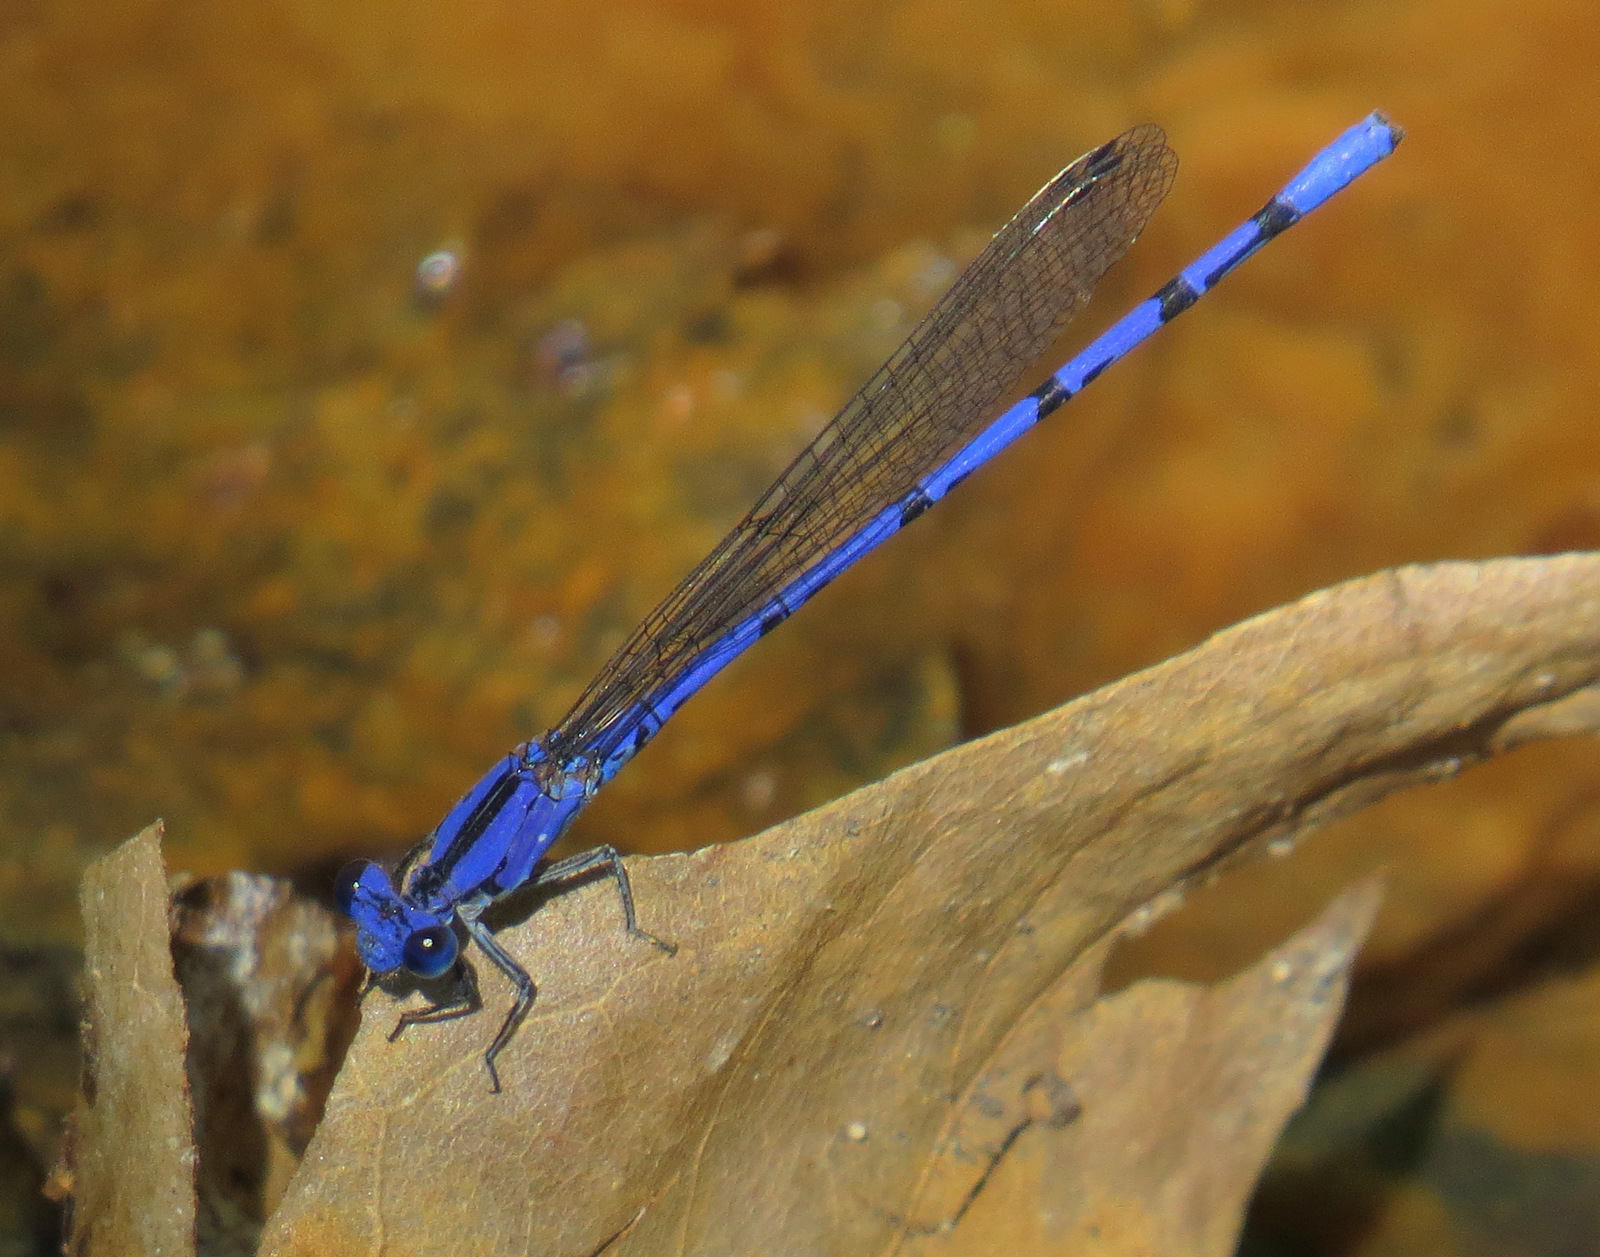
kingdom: Animalia
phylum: Arthropoda
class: Insecta
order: Odonata
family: Coenagrionidae
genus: Argia
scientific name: Argia extranea
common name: Spine-tipped dancer
